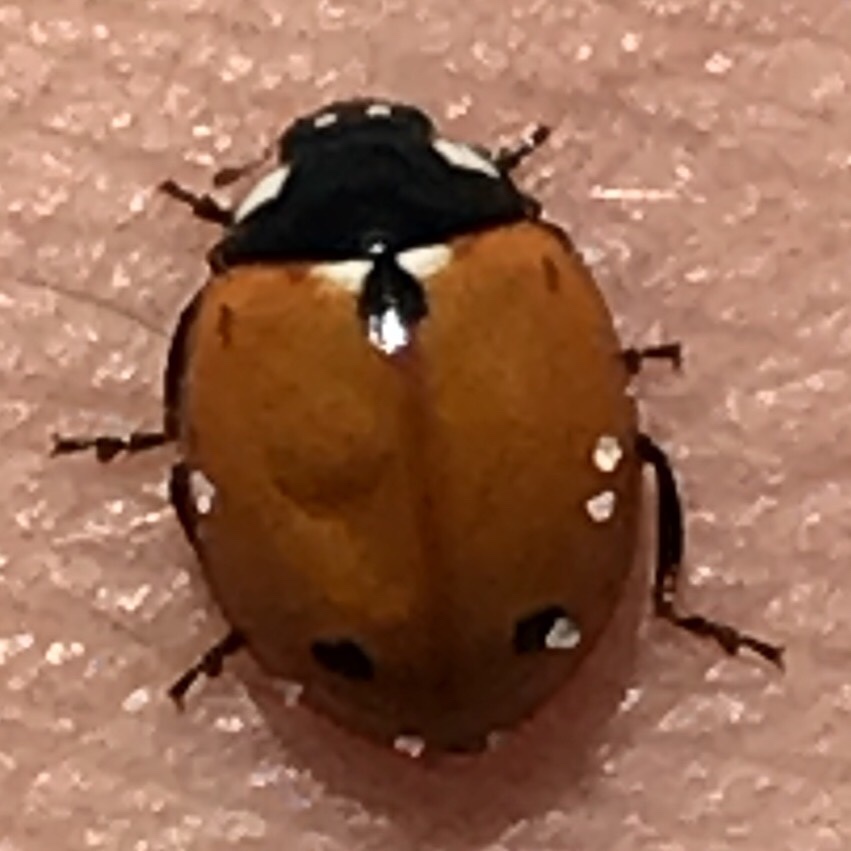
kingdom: Animalia
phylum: Arthropoda
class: Insecta
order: Coleoptera
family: Coccinellidae
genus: Coccinella
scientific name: Coccinella septempunctata
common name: Sevenspotted lady beetle
